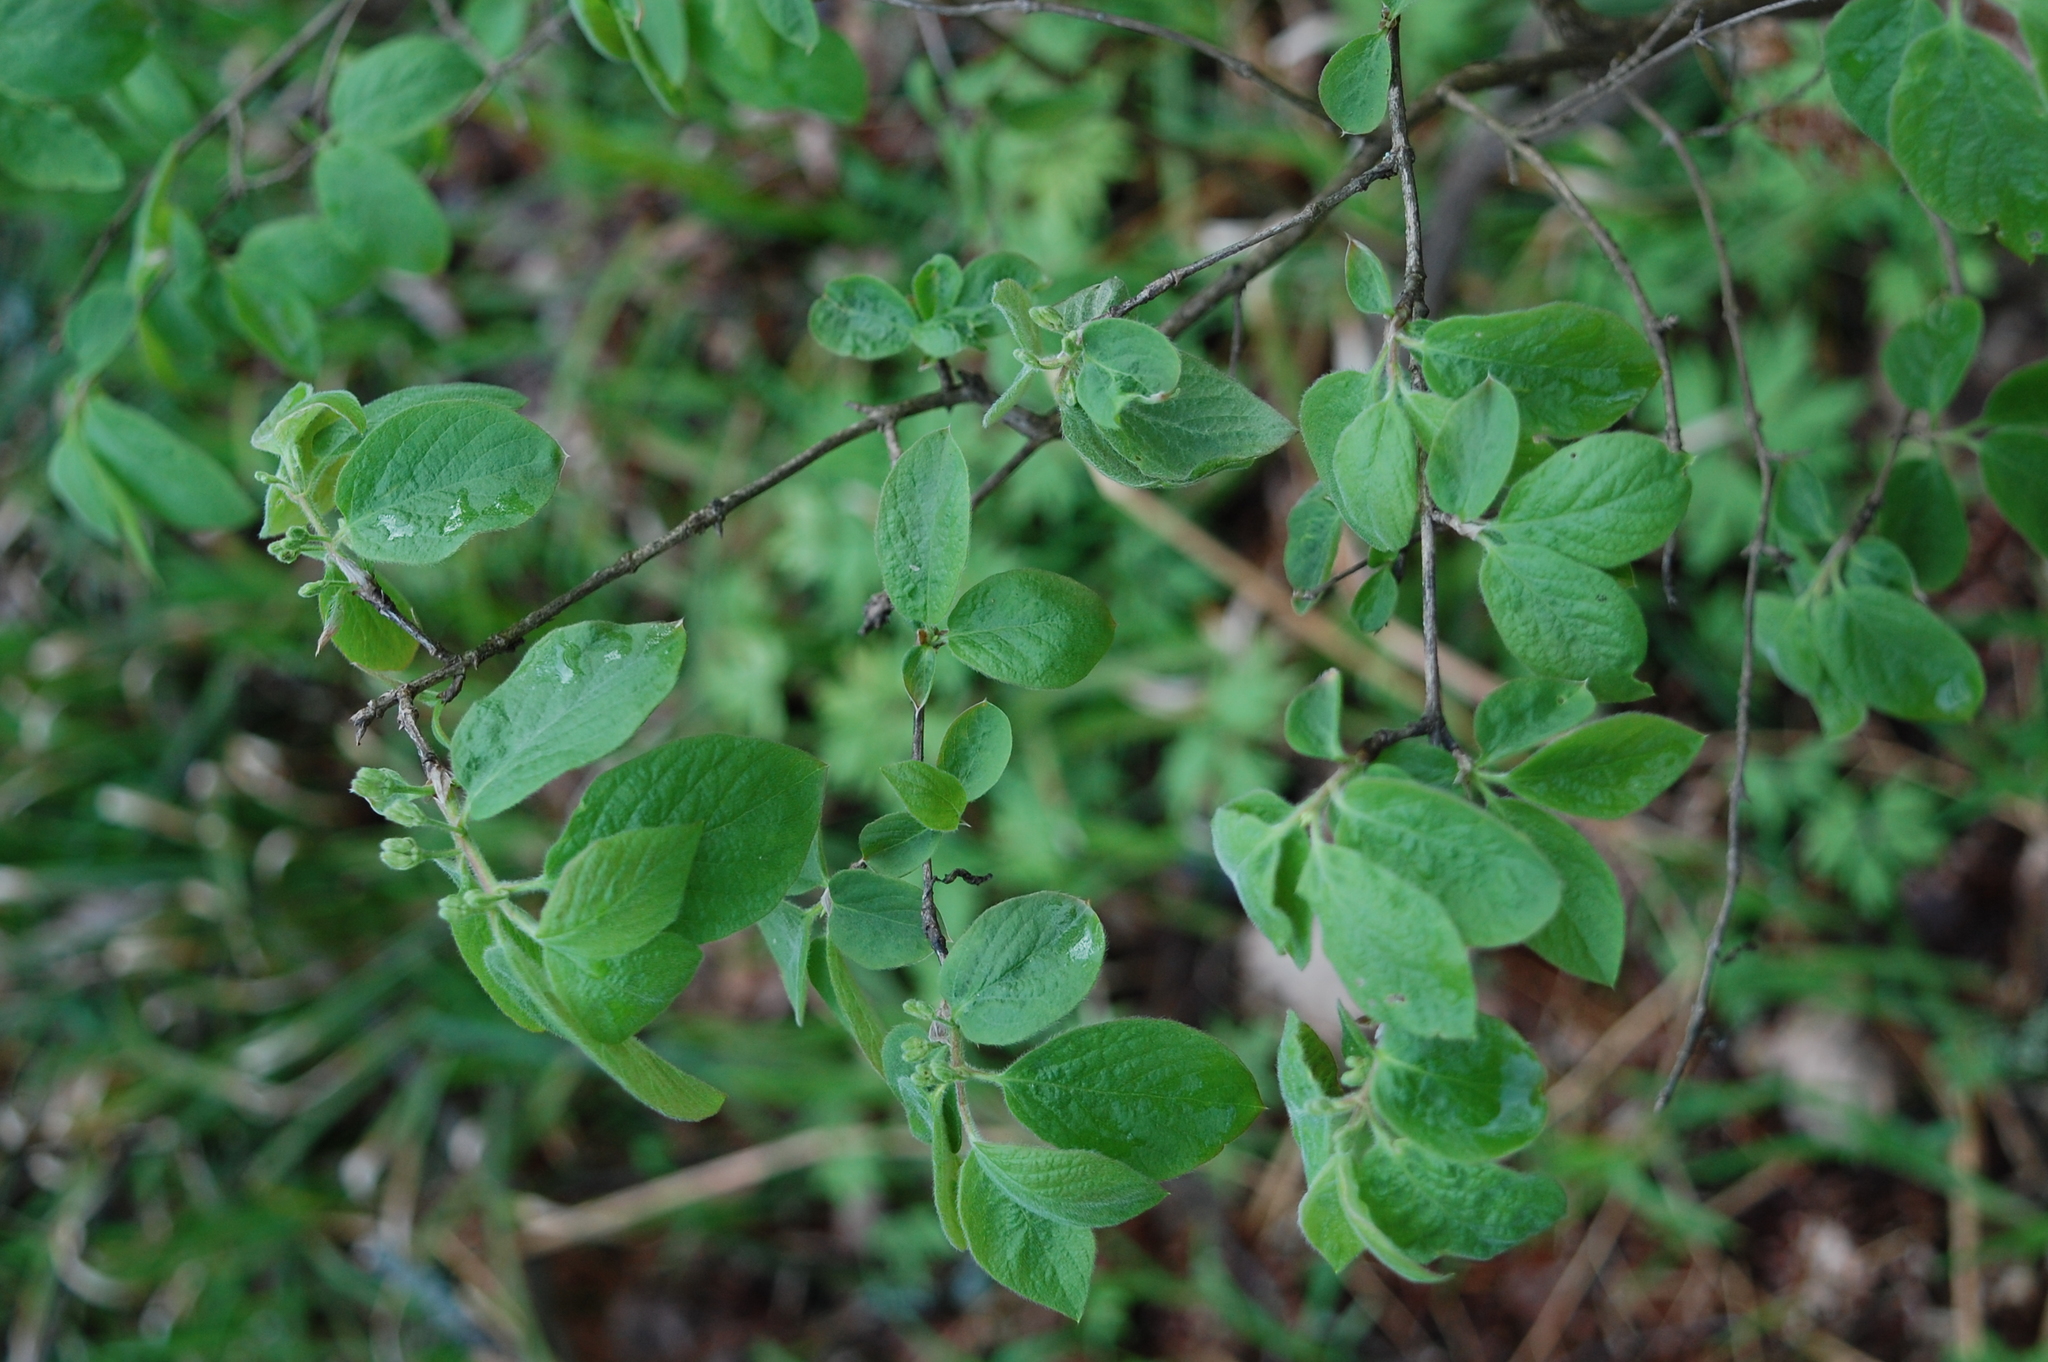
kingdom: Plantae
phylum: Tracheophyta
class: Magnoliopsida
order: Dipsacales
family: Caprifoliaceae
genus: Lonicera
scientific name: Lonicera xylosteum
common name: Fly honeysuckle
